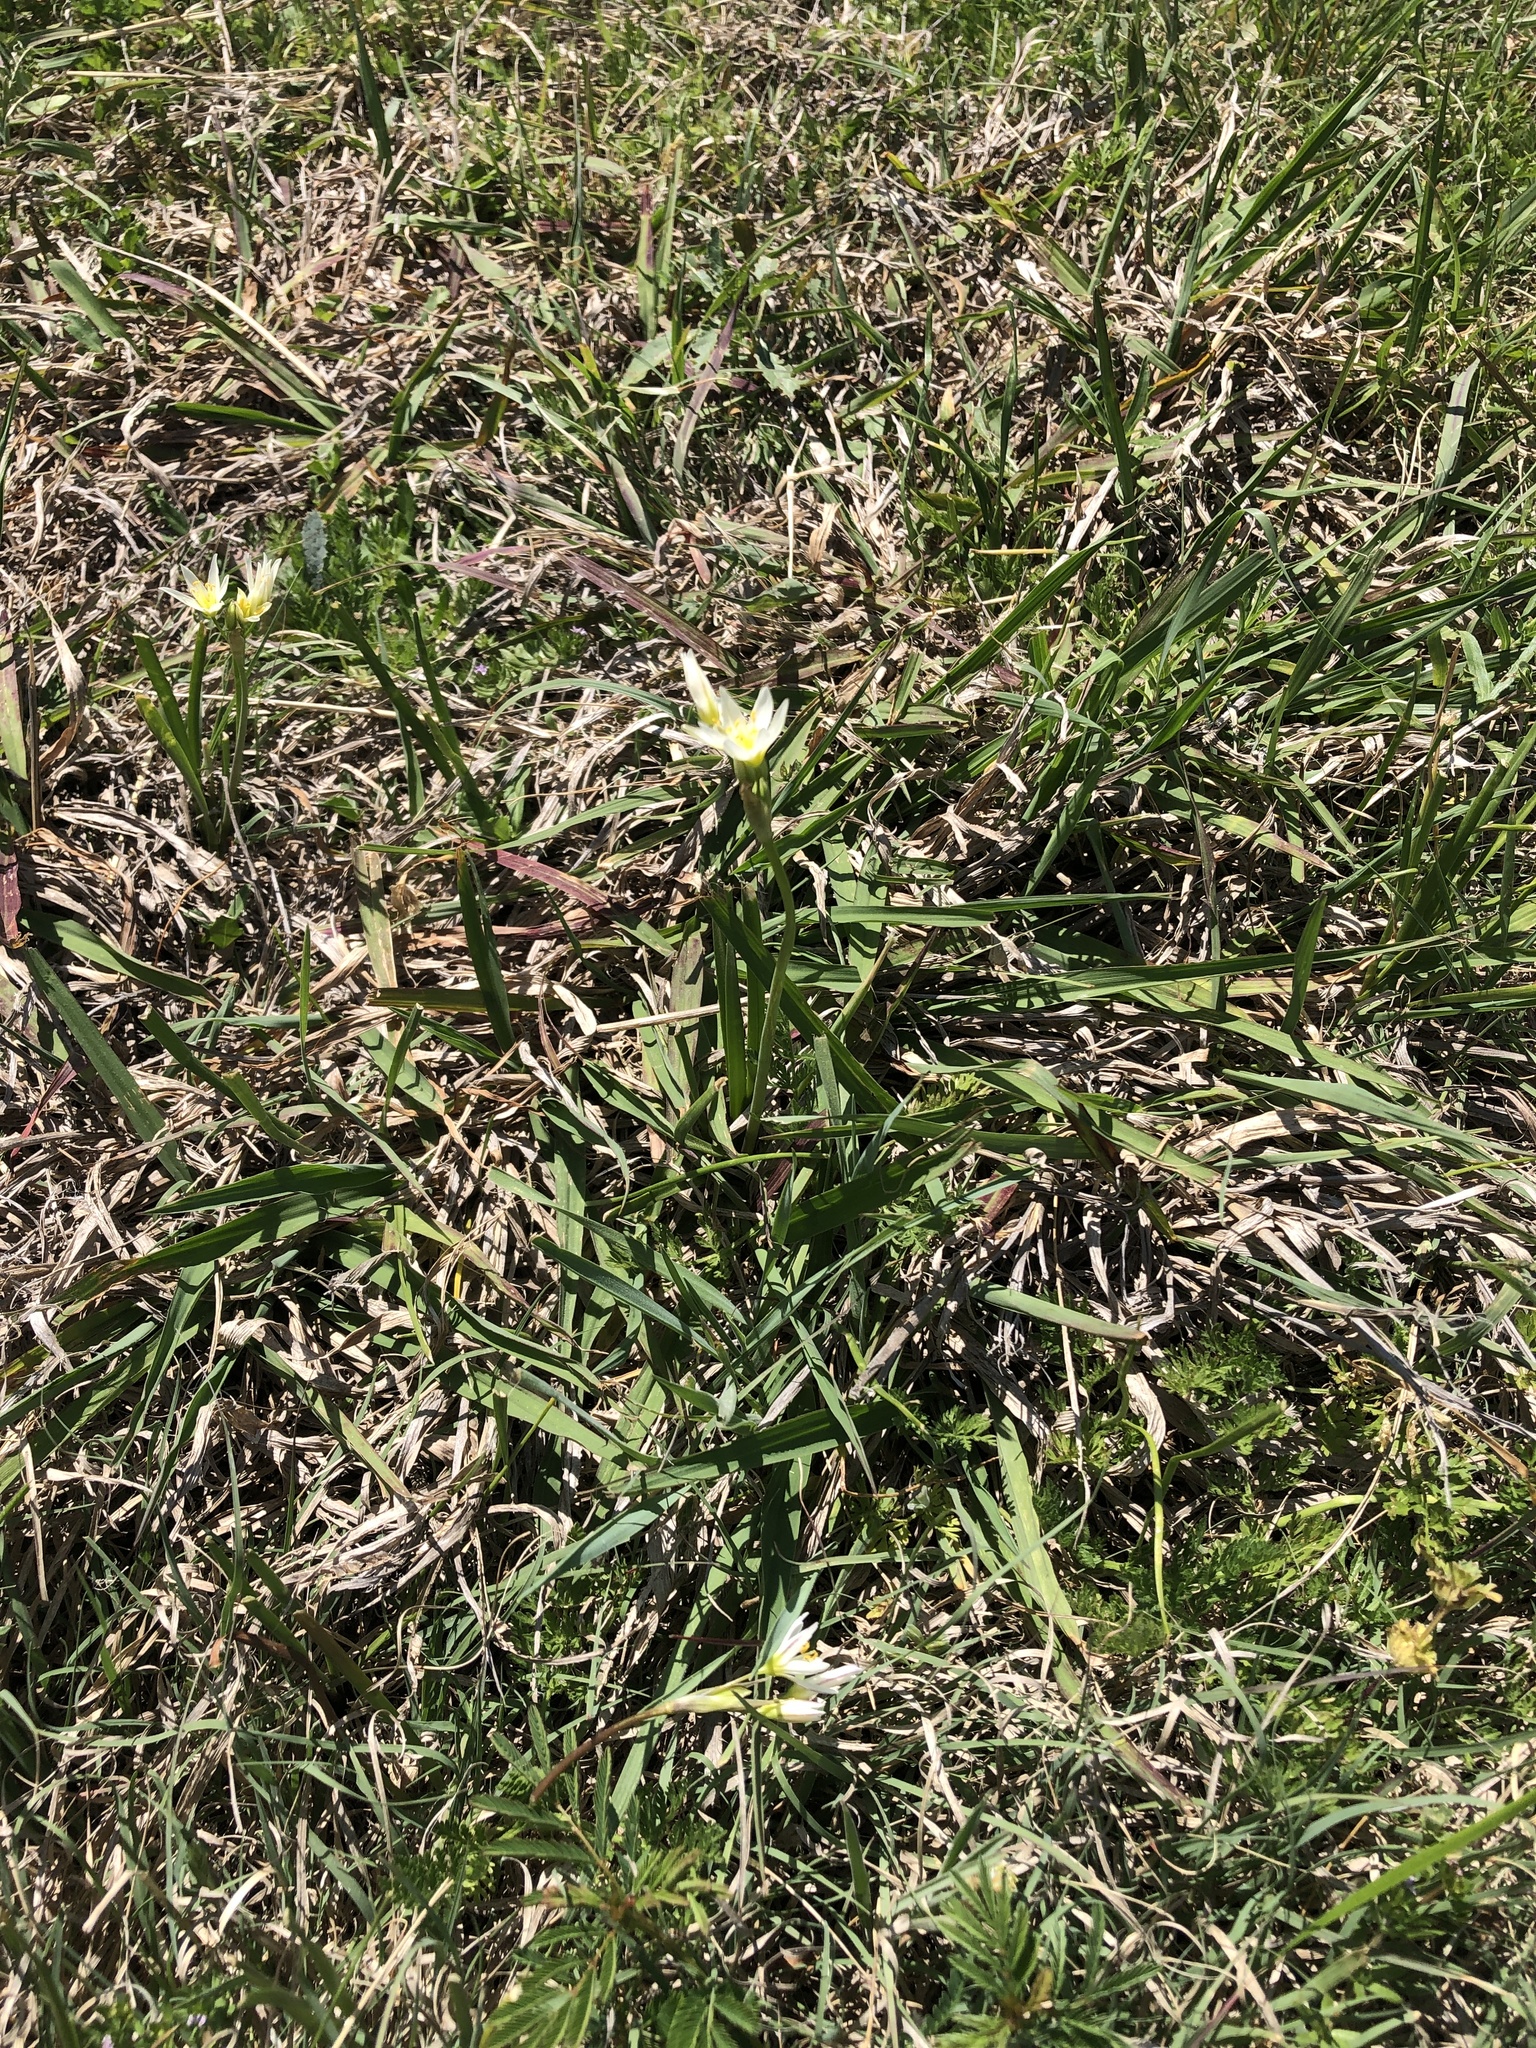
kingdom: Plantae
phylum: Tracheophyta
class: Liliopsida
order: Asparagales
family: Amaryllidaceae
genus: Nothoscordum
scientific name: Nothoscordum bivalve
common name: Crow-poison
